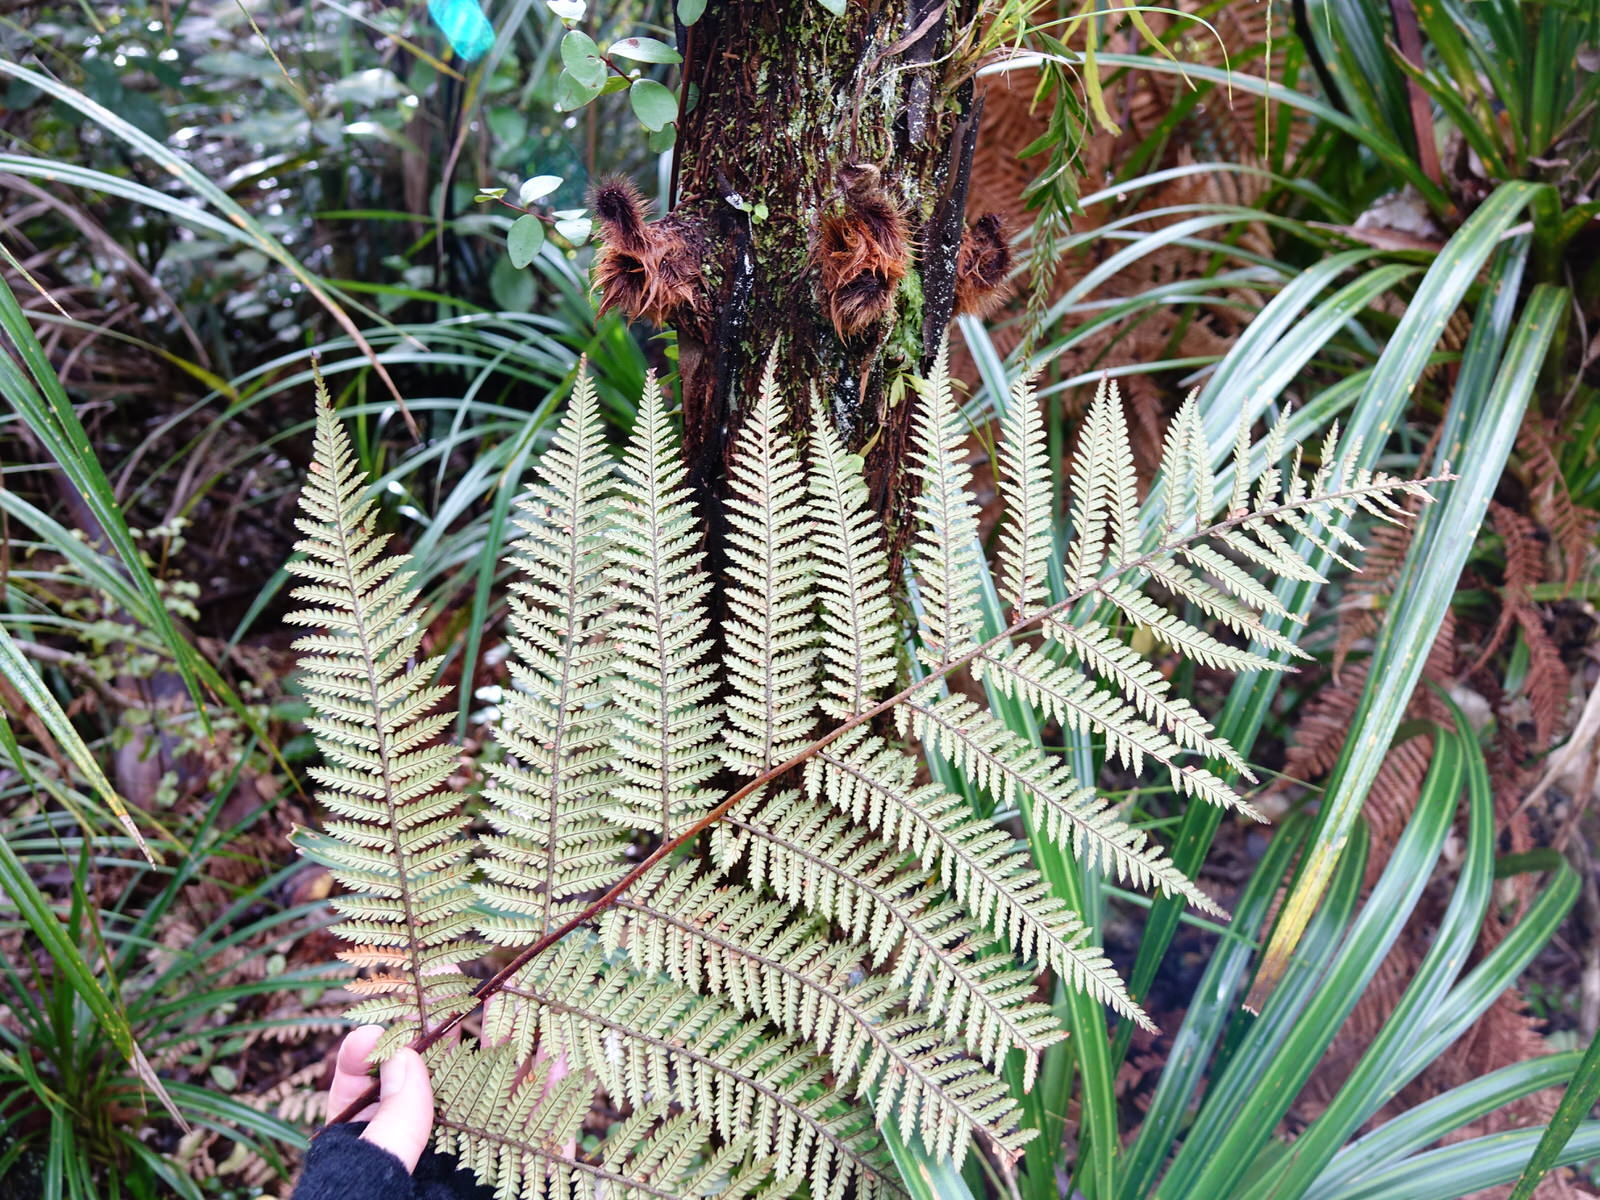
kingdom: Plantae
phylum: Tracheophyta
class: Polypodiopsida
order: Cyatheales
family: Dicksoniaceae
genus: Dicksonia
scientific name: Dicksonia squarrosa
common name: Hard treefern
